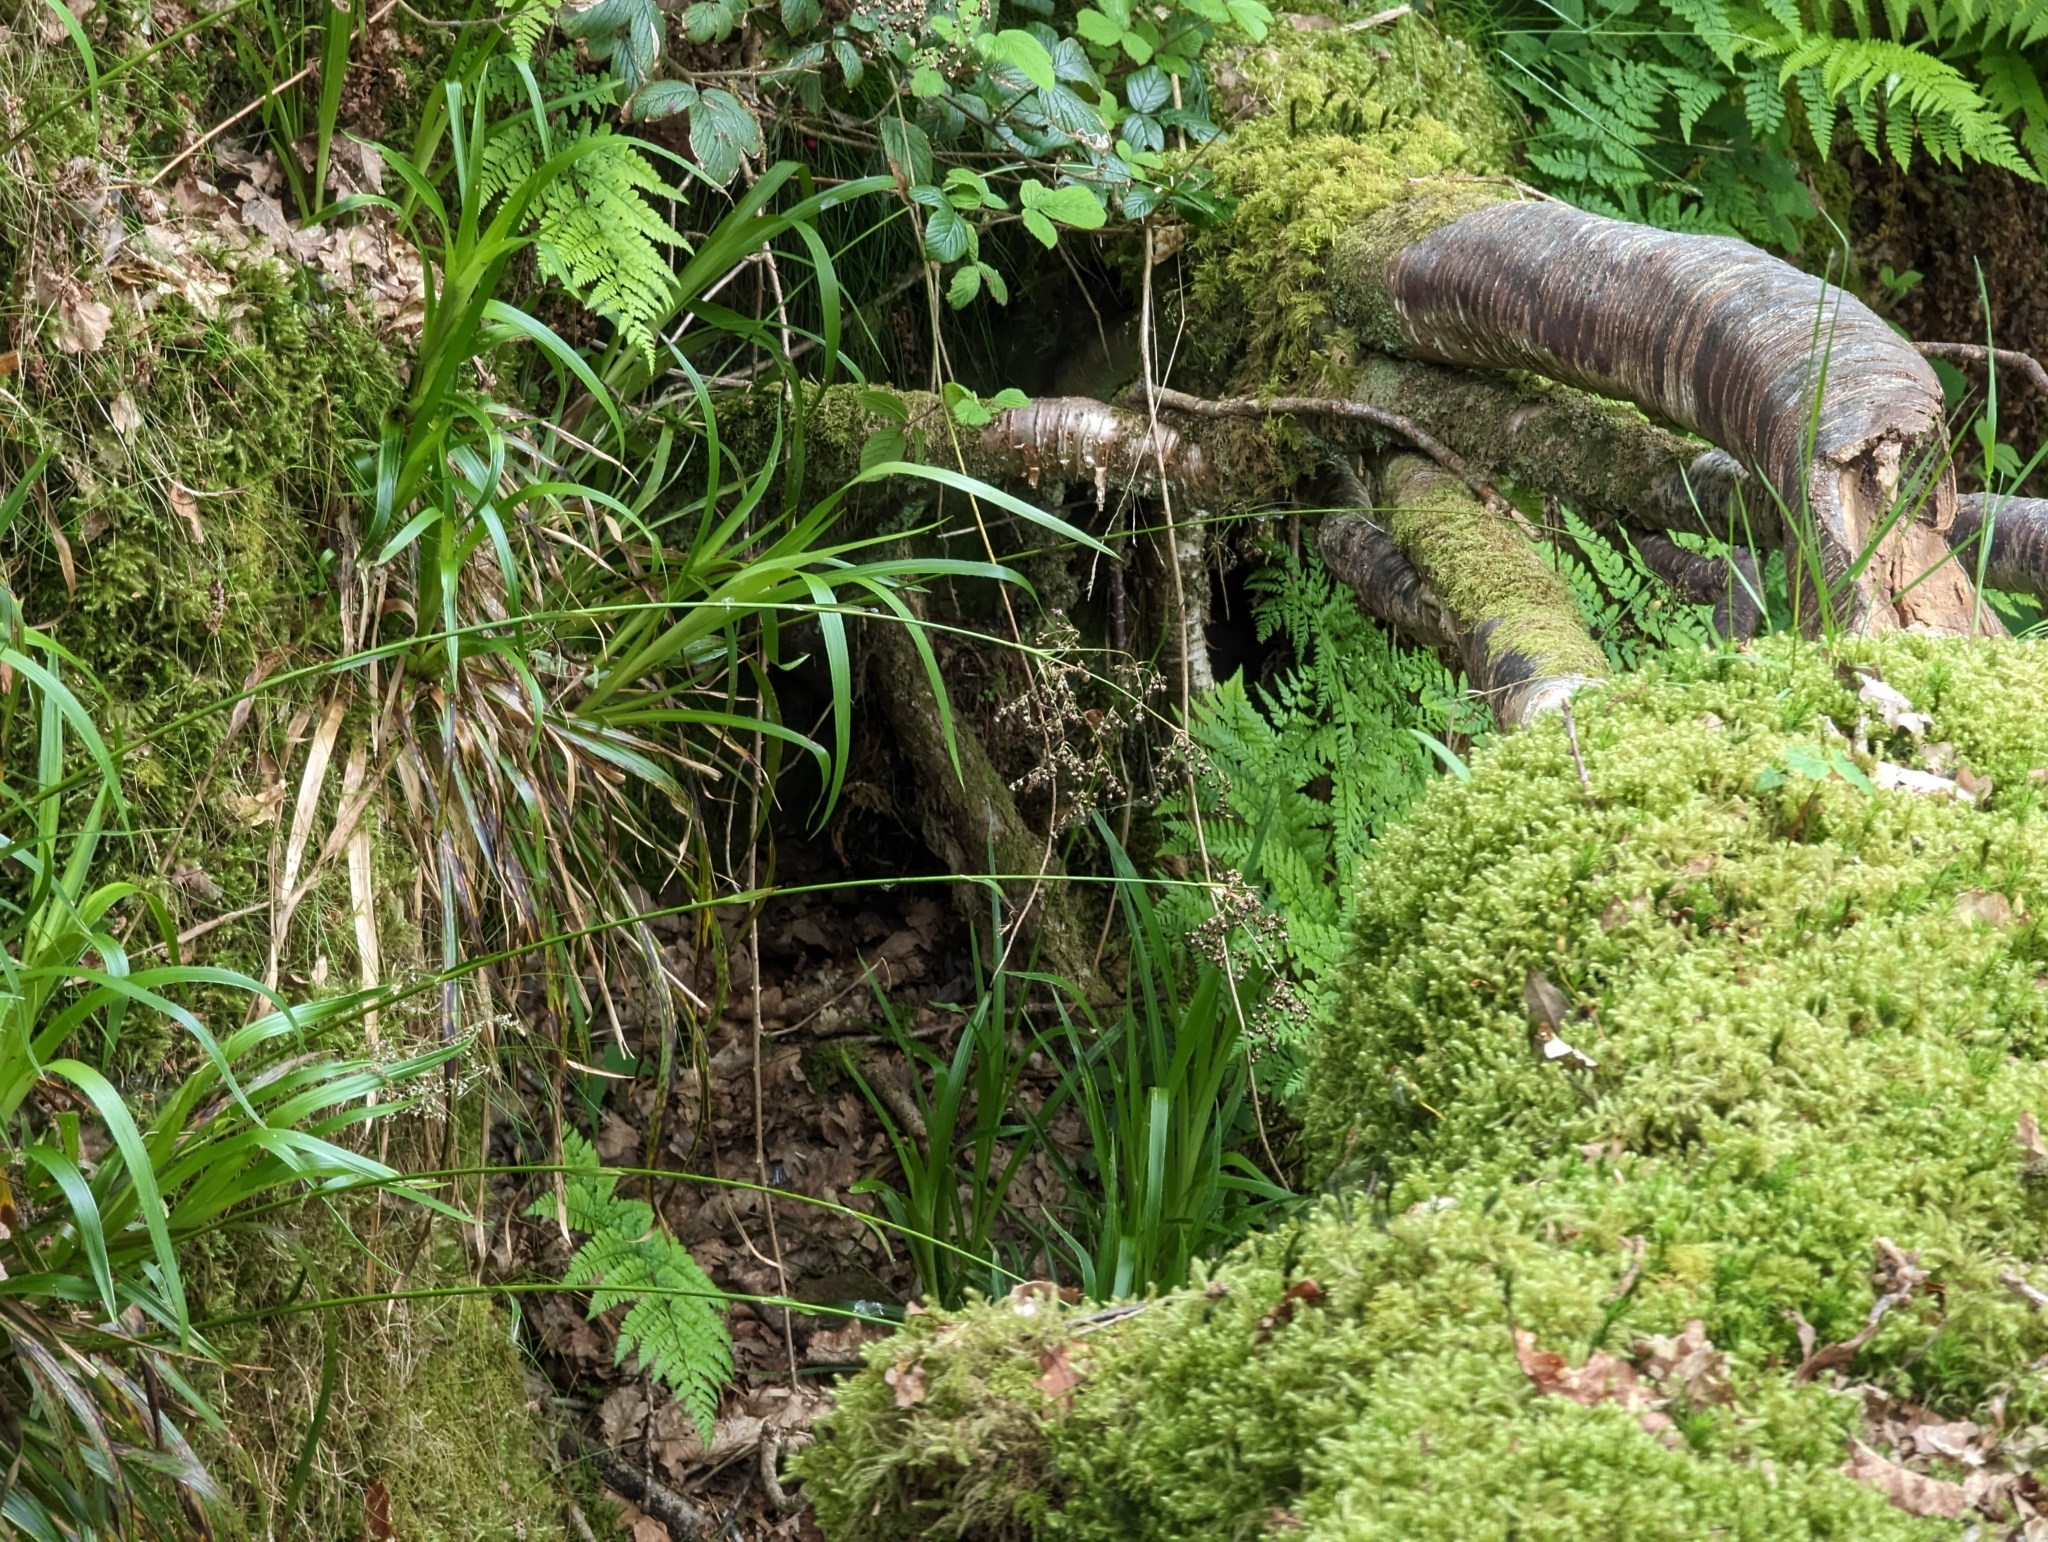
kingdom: Plantae
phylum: Tracheophyta
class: Liliopsida
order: Poales
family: Juncaceae
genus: Luzula
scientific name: Luzula sylvatica
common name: Great wood-rush
